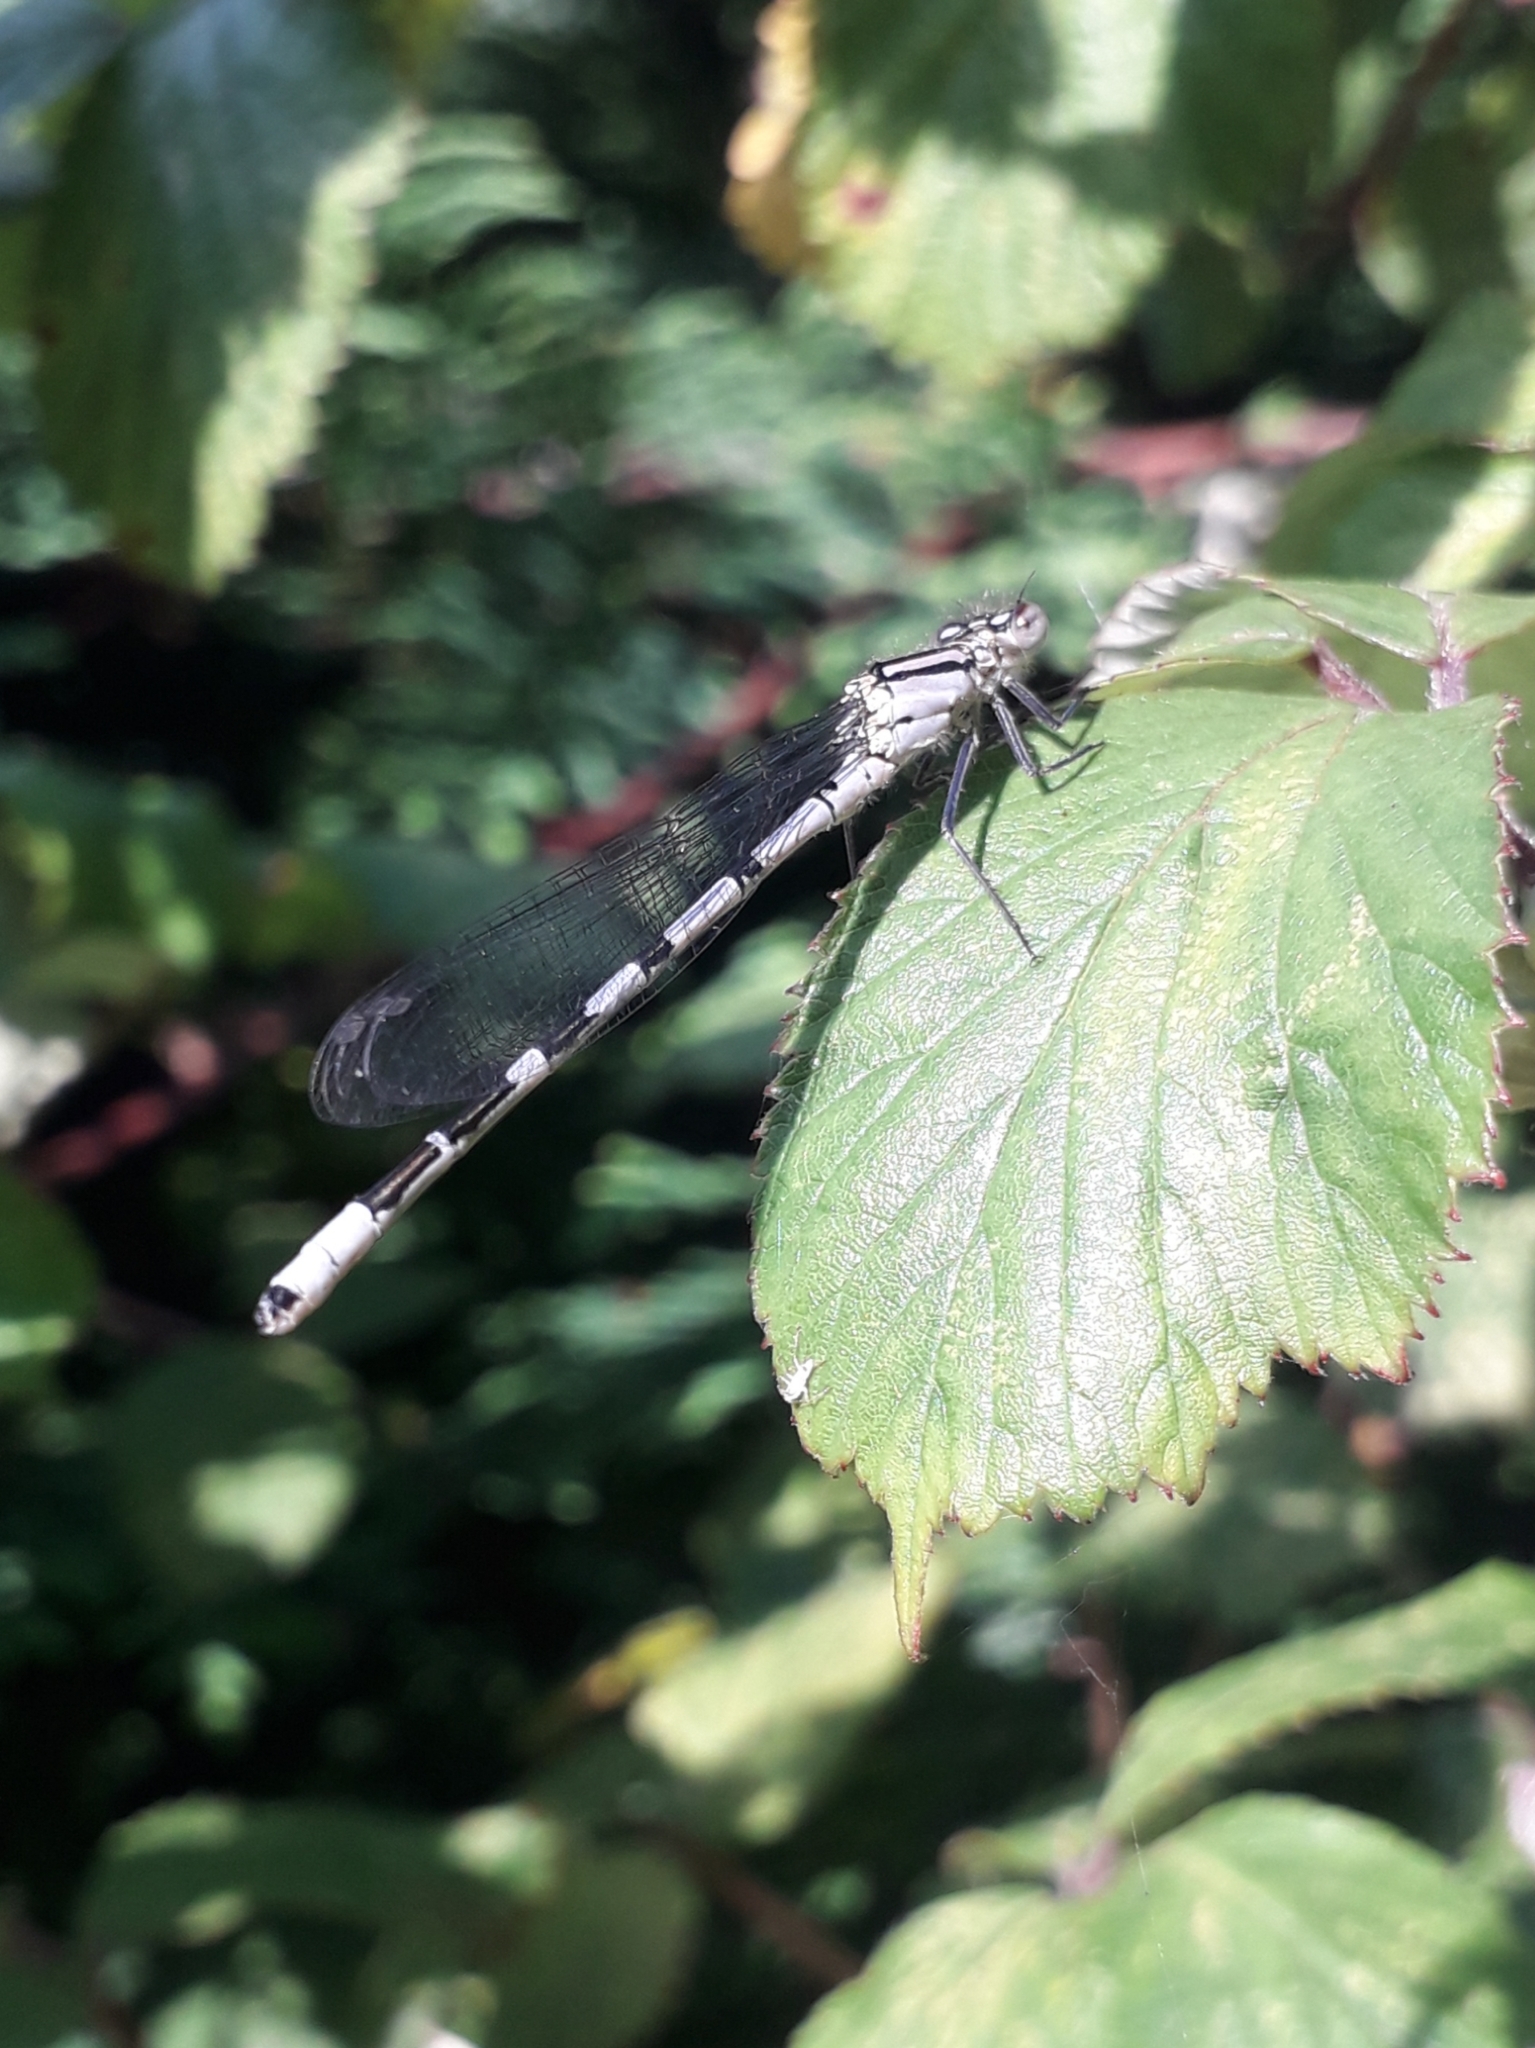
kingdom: Animalia
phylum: Arthropoda
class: Insecta
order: Odonata
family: Coenagrionidae
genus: Enallagma
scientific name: Enallagma cyathigerum
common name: Common blue damselfly
